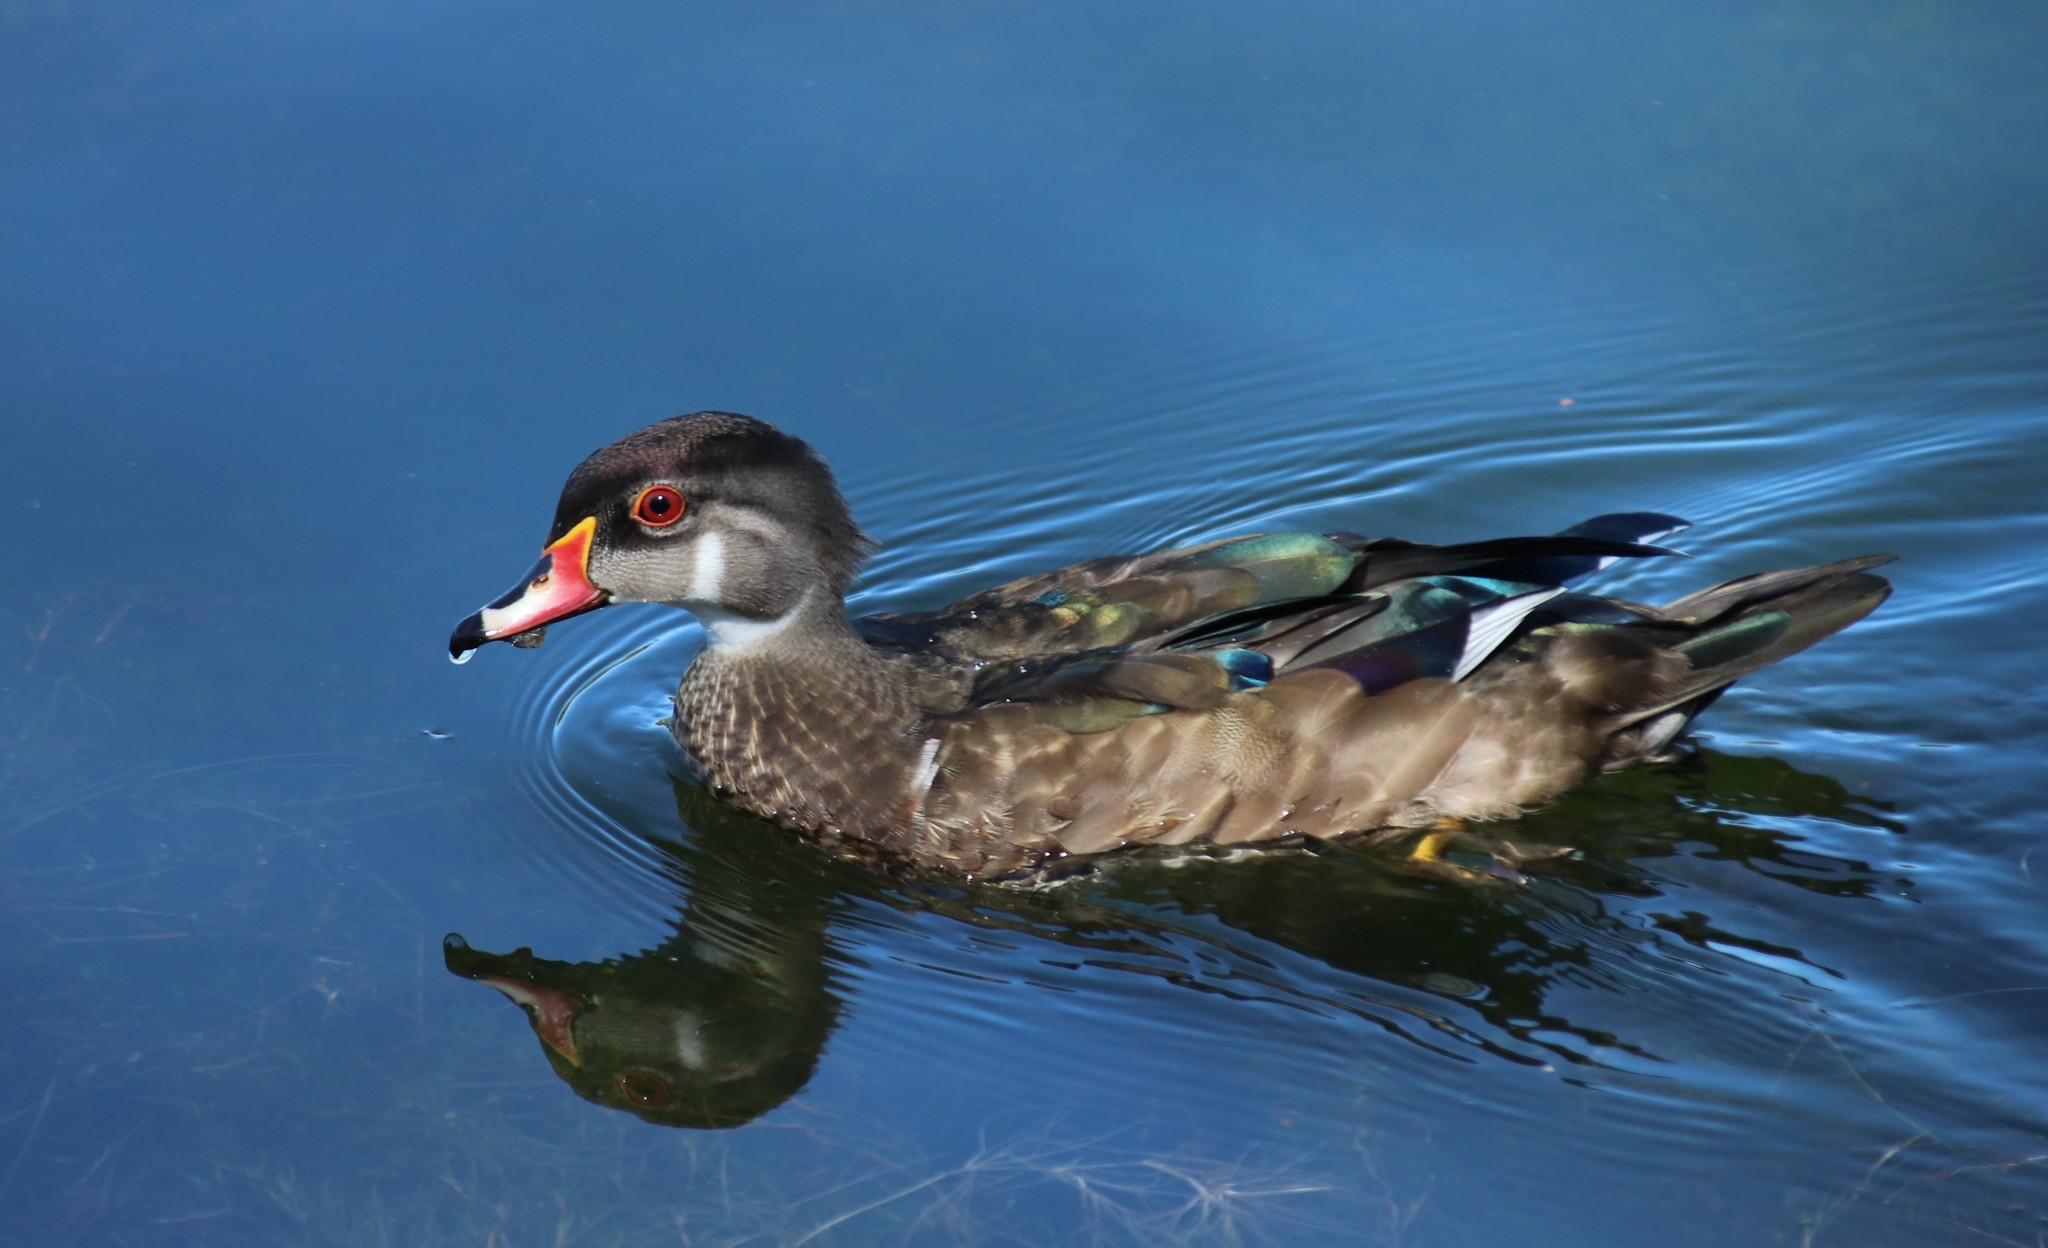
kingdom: Animalia
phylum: Chordata
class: Aves
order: Anseriformes
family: Anatidae
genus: Aix
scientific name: Aix sponsa
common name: Wood duck
